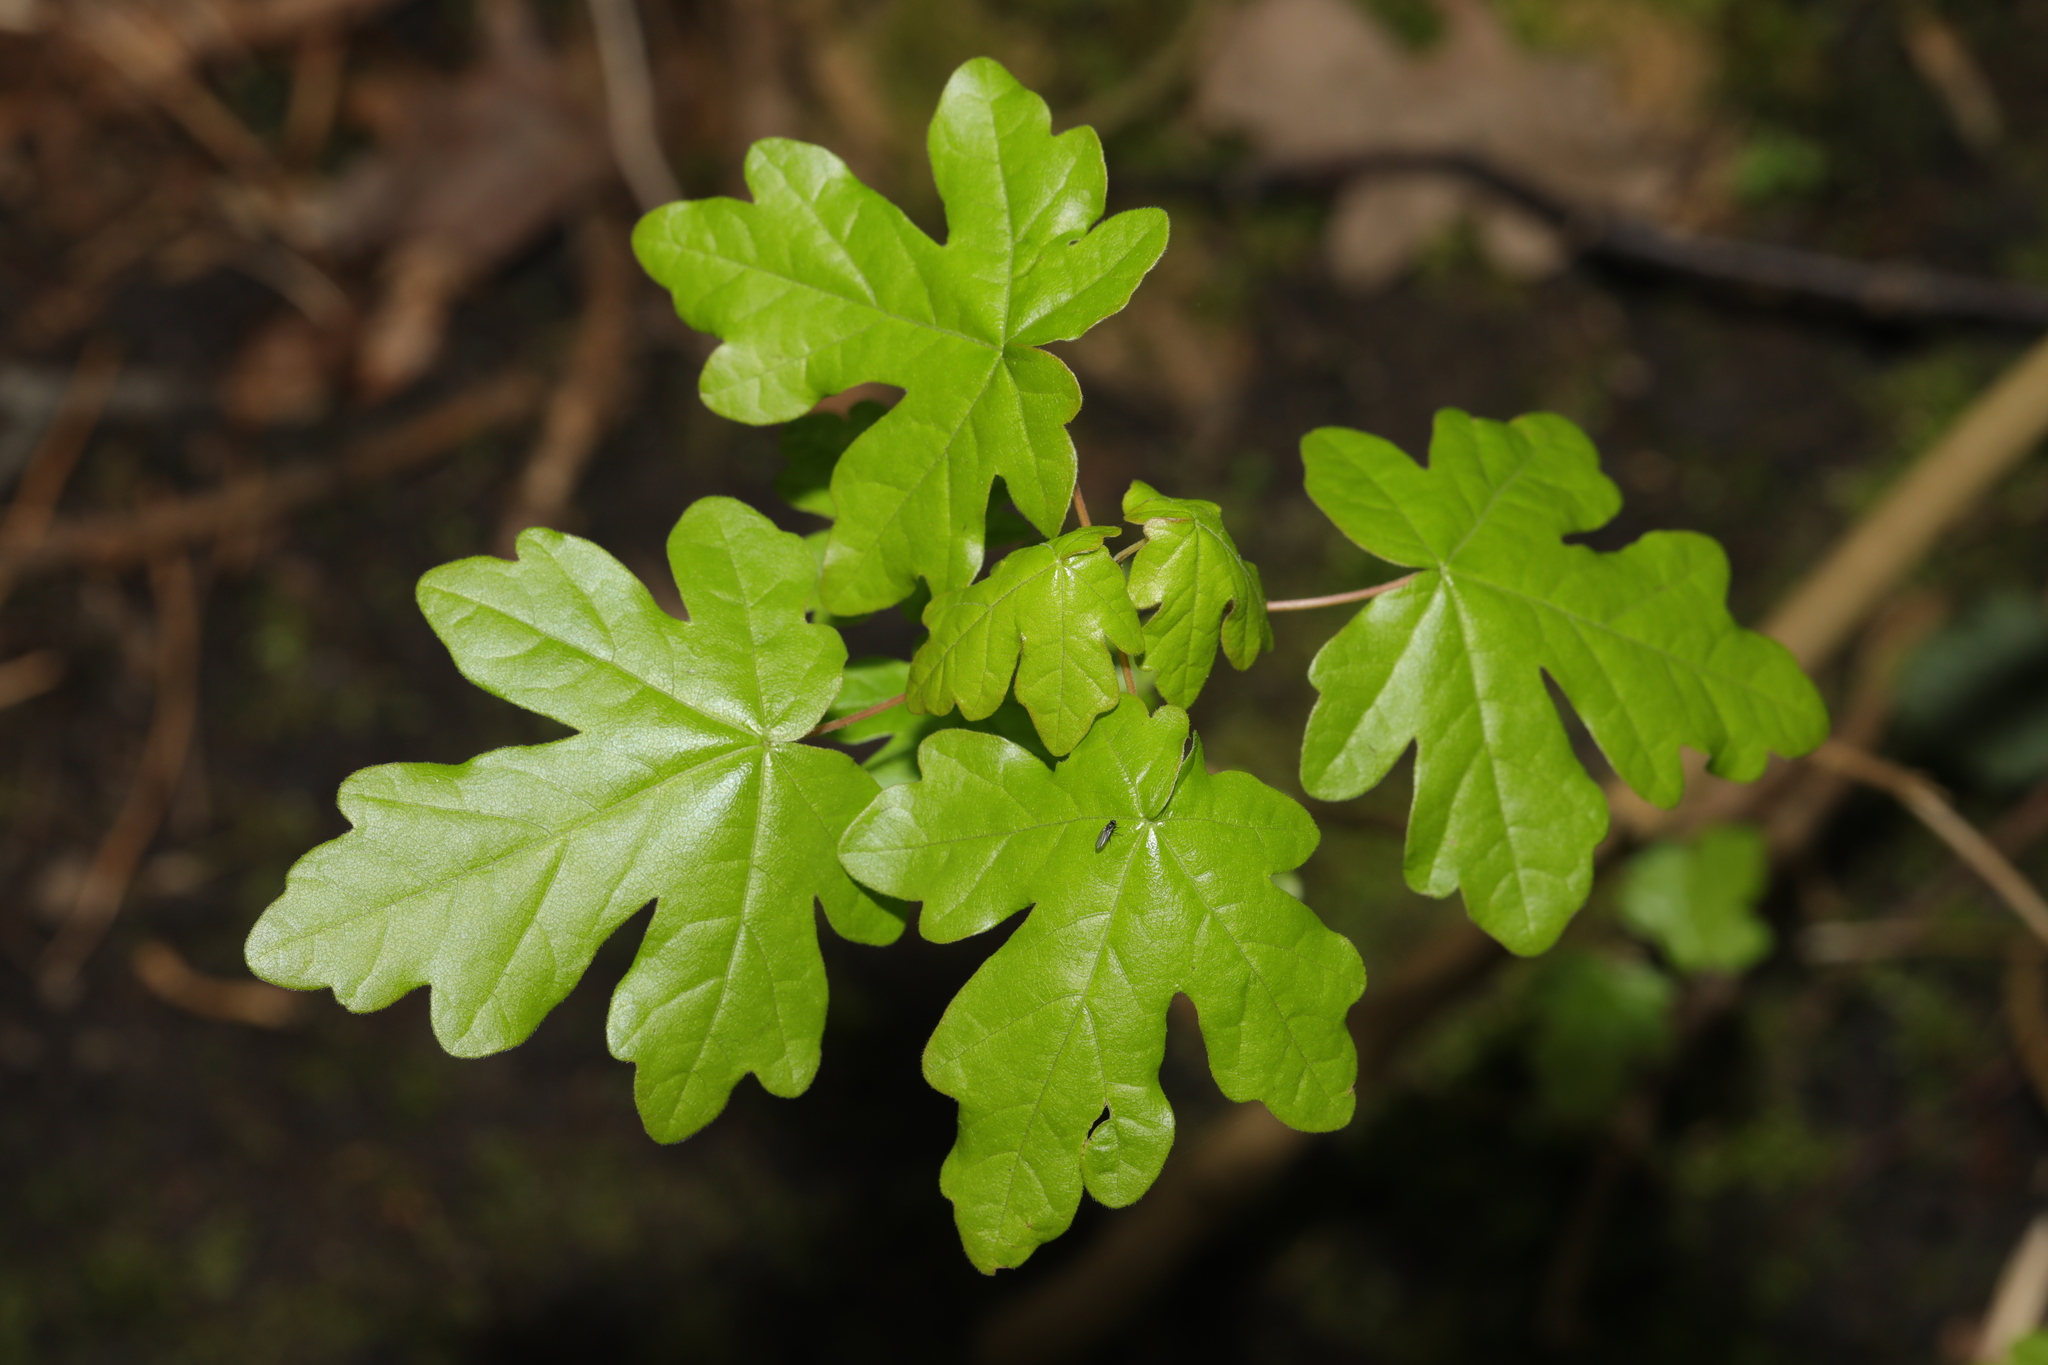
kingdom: Plantae
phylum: Tracheophyta
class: Magnoliopsida
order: Sapindales
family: Sapindaceae
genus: Acer
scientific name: Acer campestre
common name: Field maple
